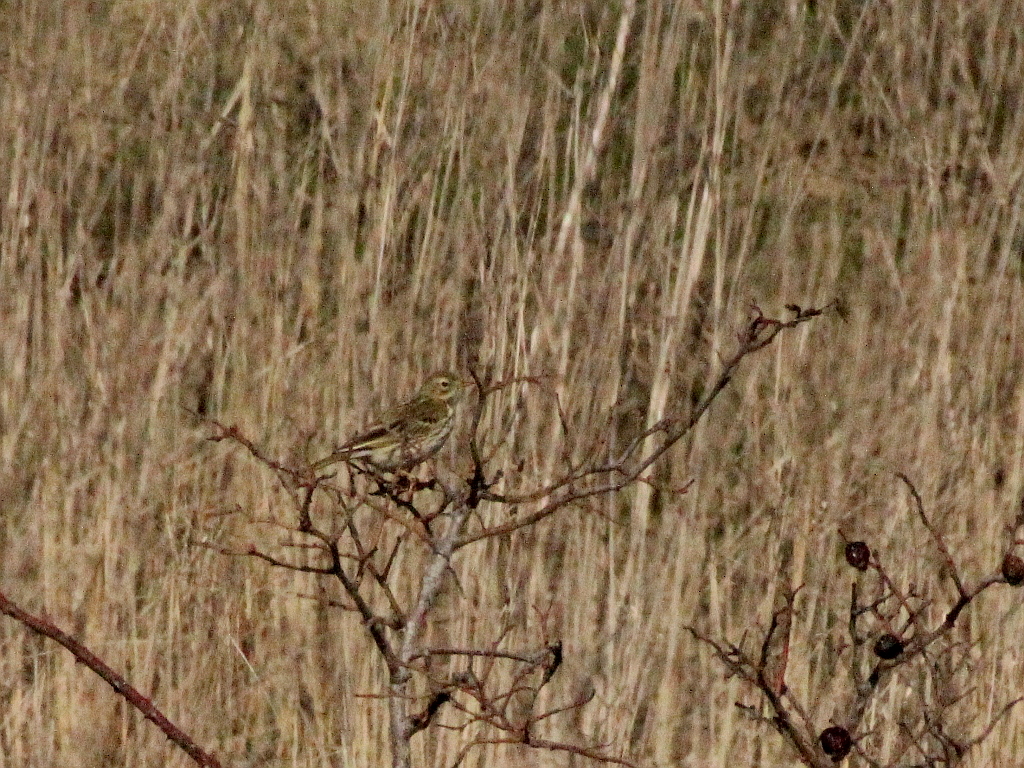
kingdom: Animalia
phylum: Chordata
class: Aves
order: Passeriformes
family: Motacillidae
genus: Anthus
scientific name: Anthus pratensis
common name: Meadow pipit
